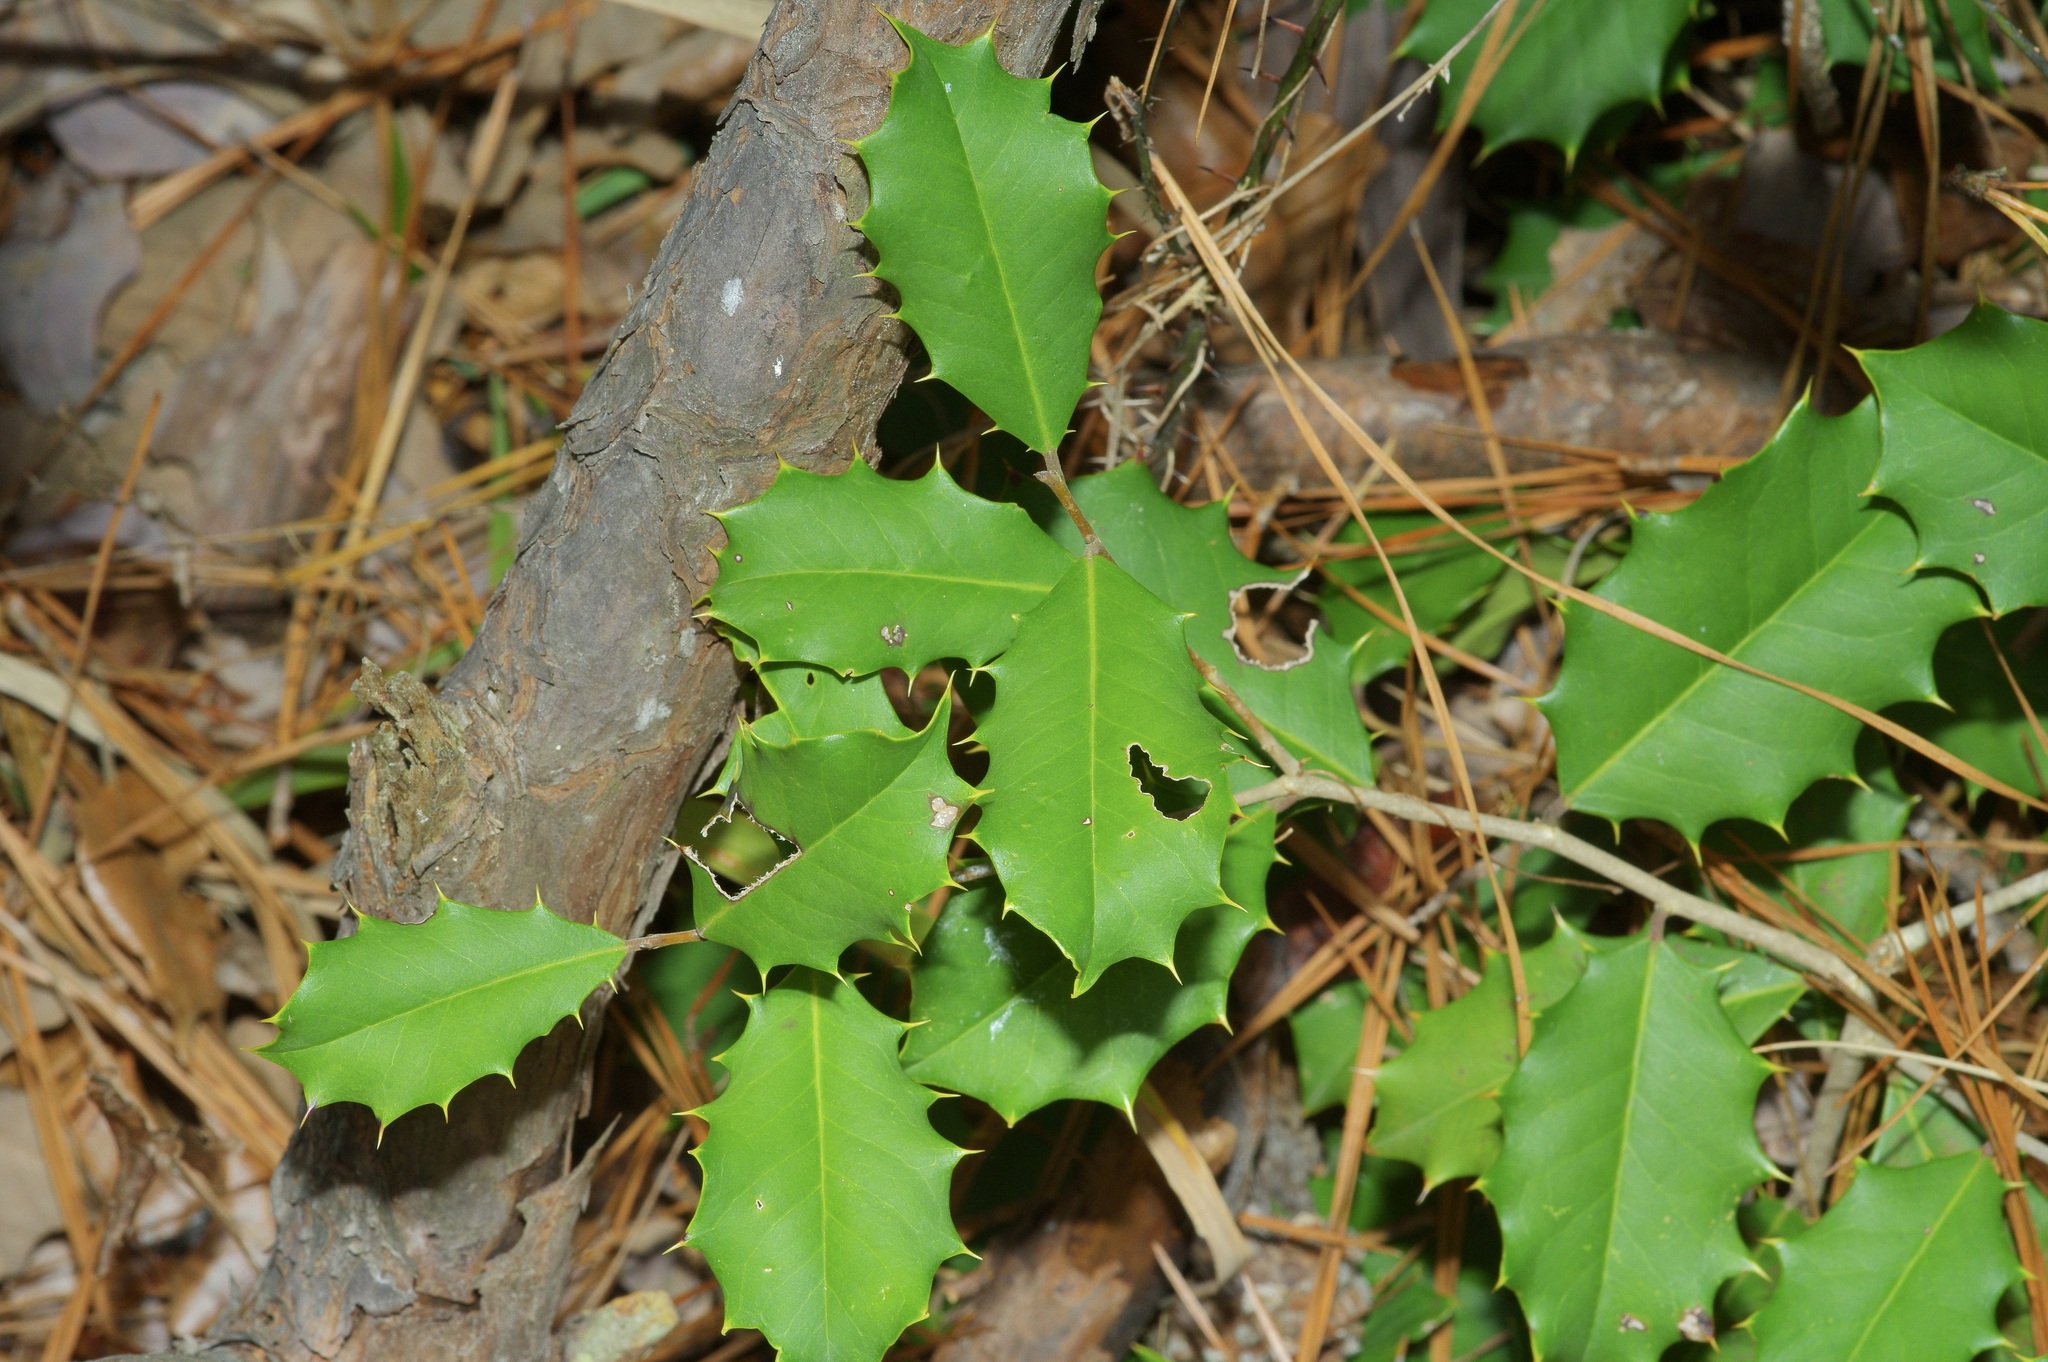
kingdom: Plantae
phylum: Tracheophyta
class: Magnoliopsida
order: Aquifoliales
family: Aquifoliaceae
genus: Ilex
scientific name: Ilex opaca
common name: American holly
